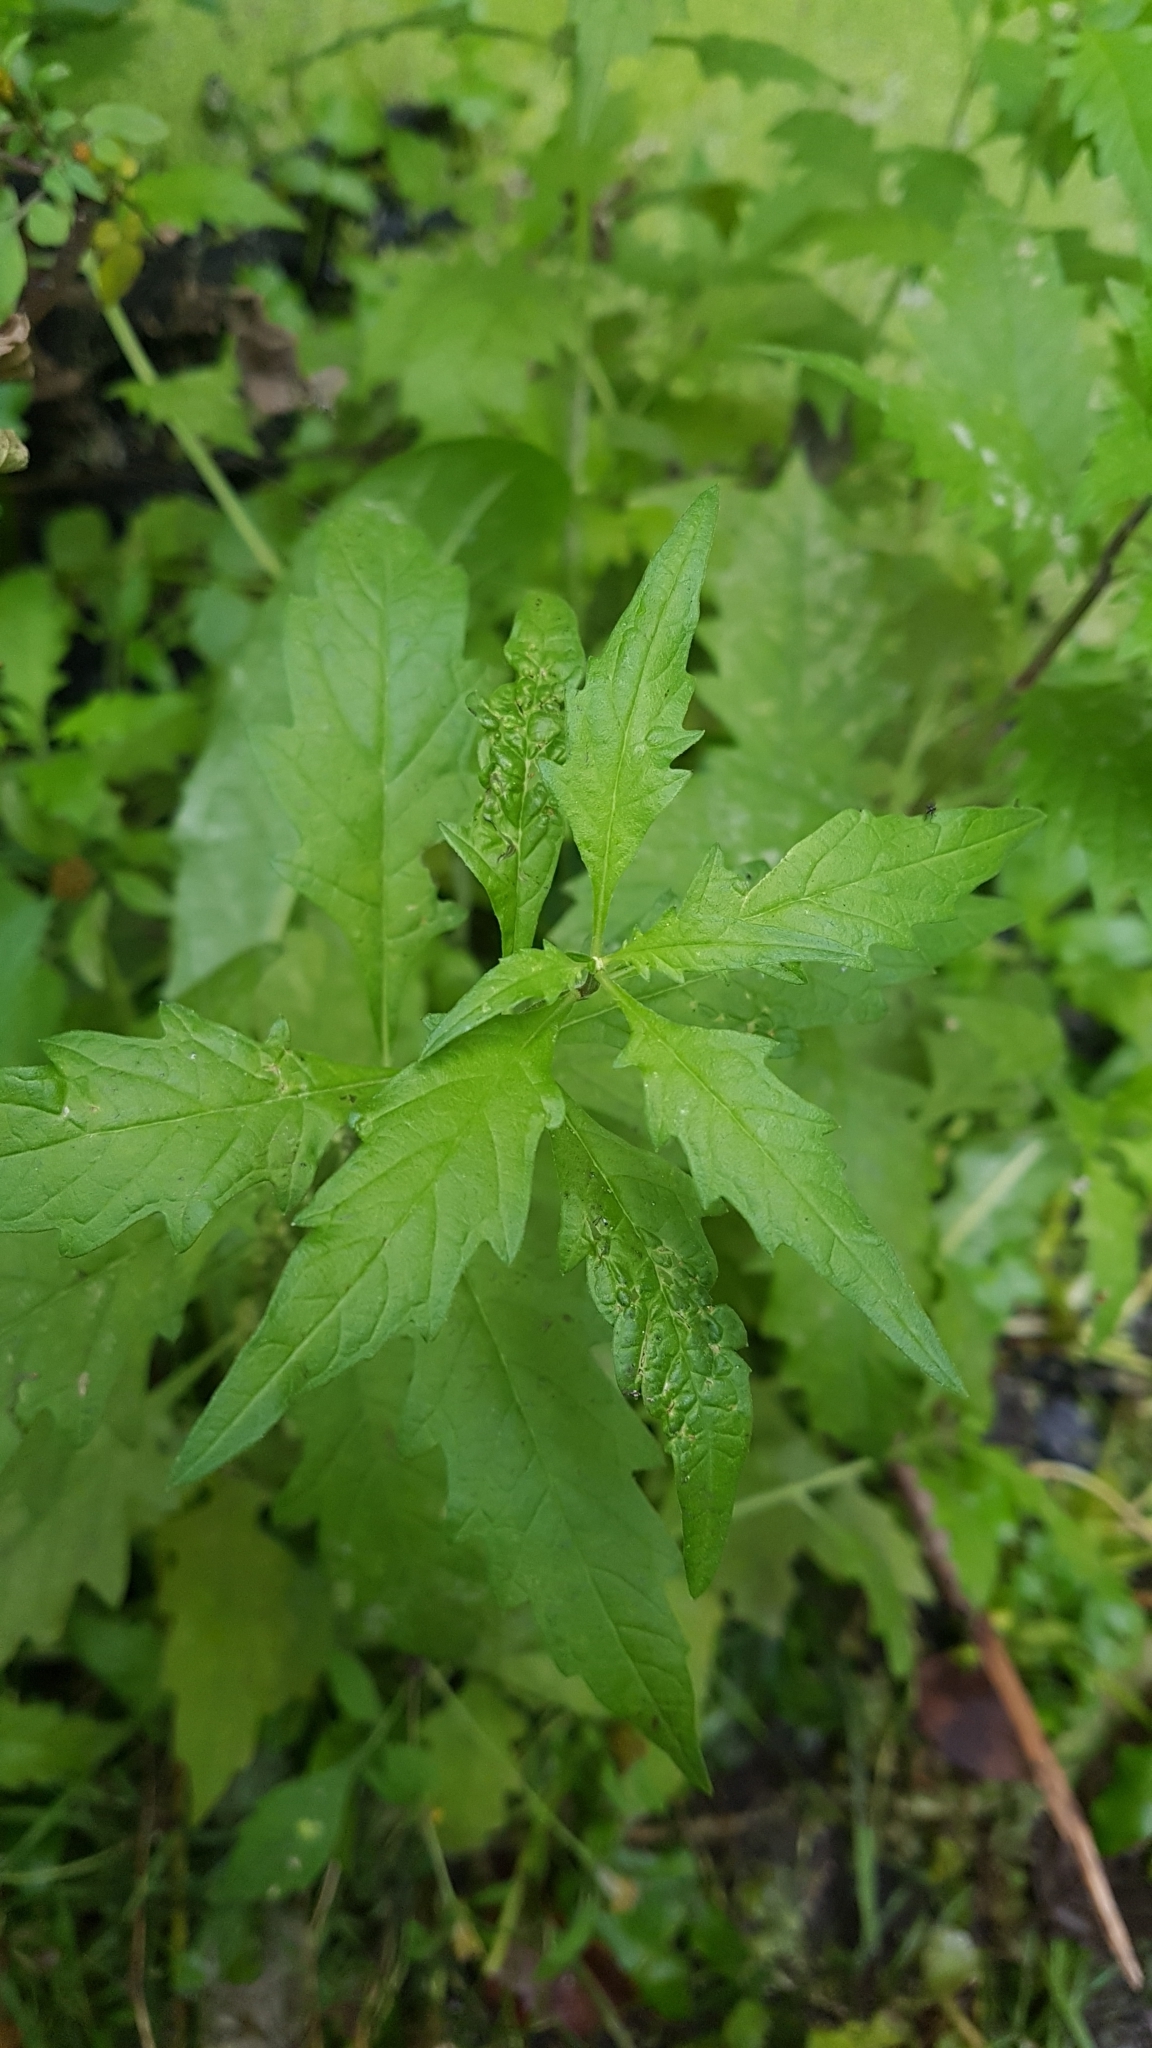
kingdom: Plantae
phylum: Tracheophyta
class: Magnoliopsida
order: Lamiales
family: Lamiaceae
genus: Lycopus
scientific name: Lycopus europaeus
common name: European bugleweed
